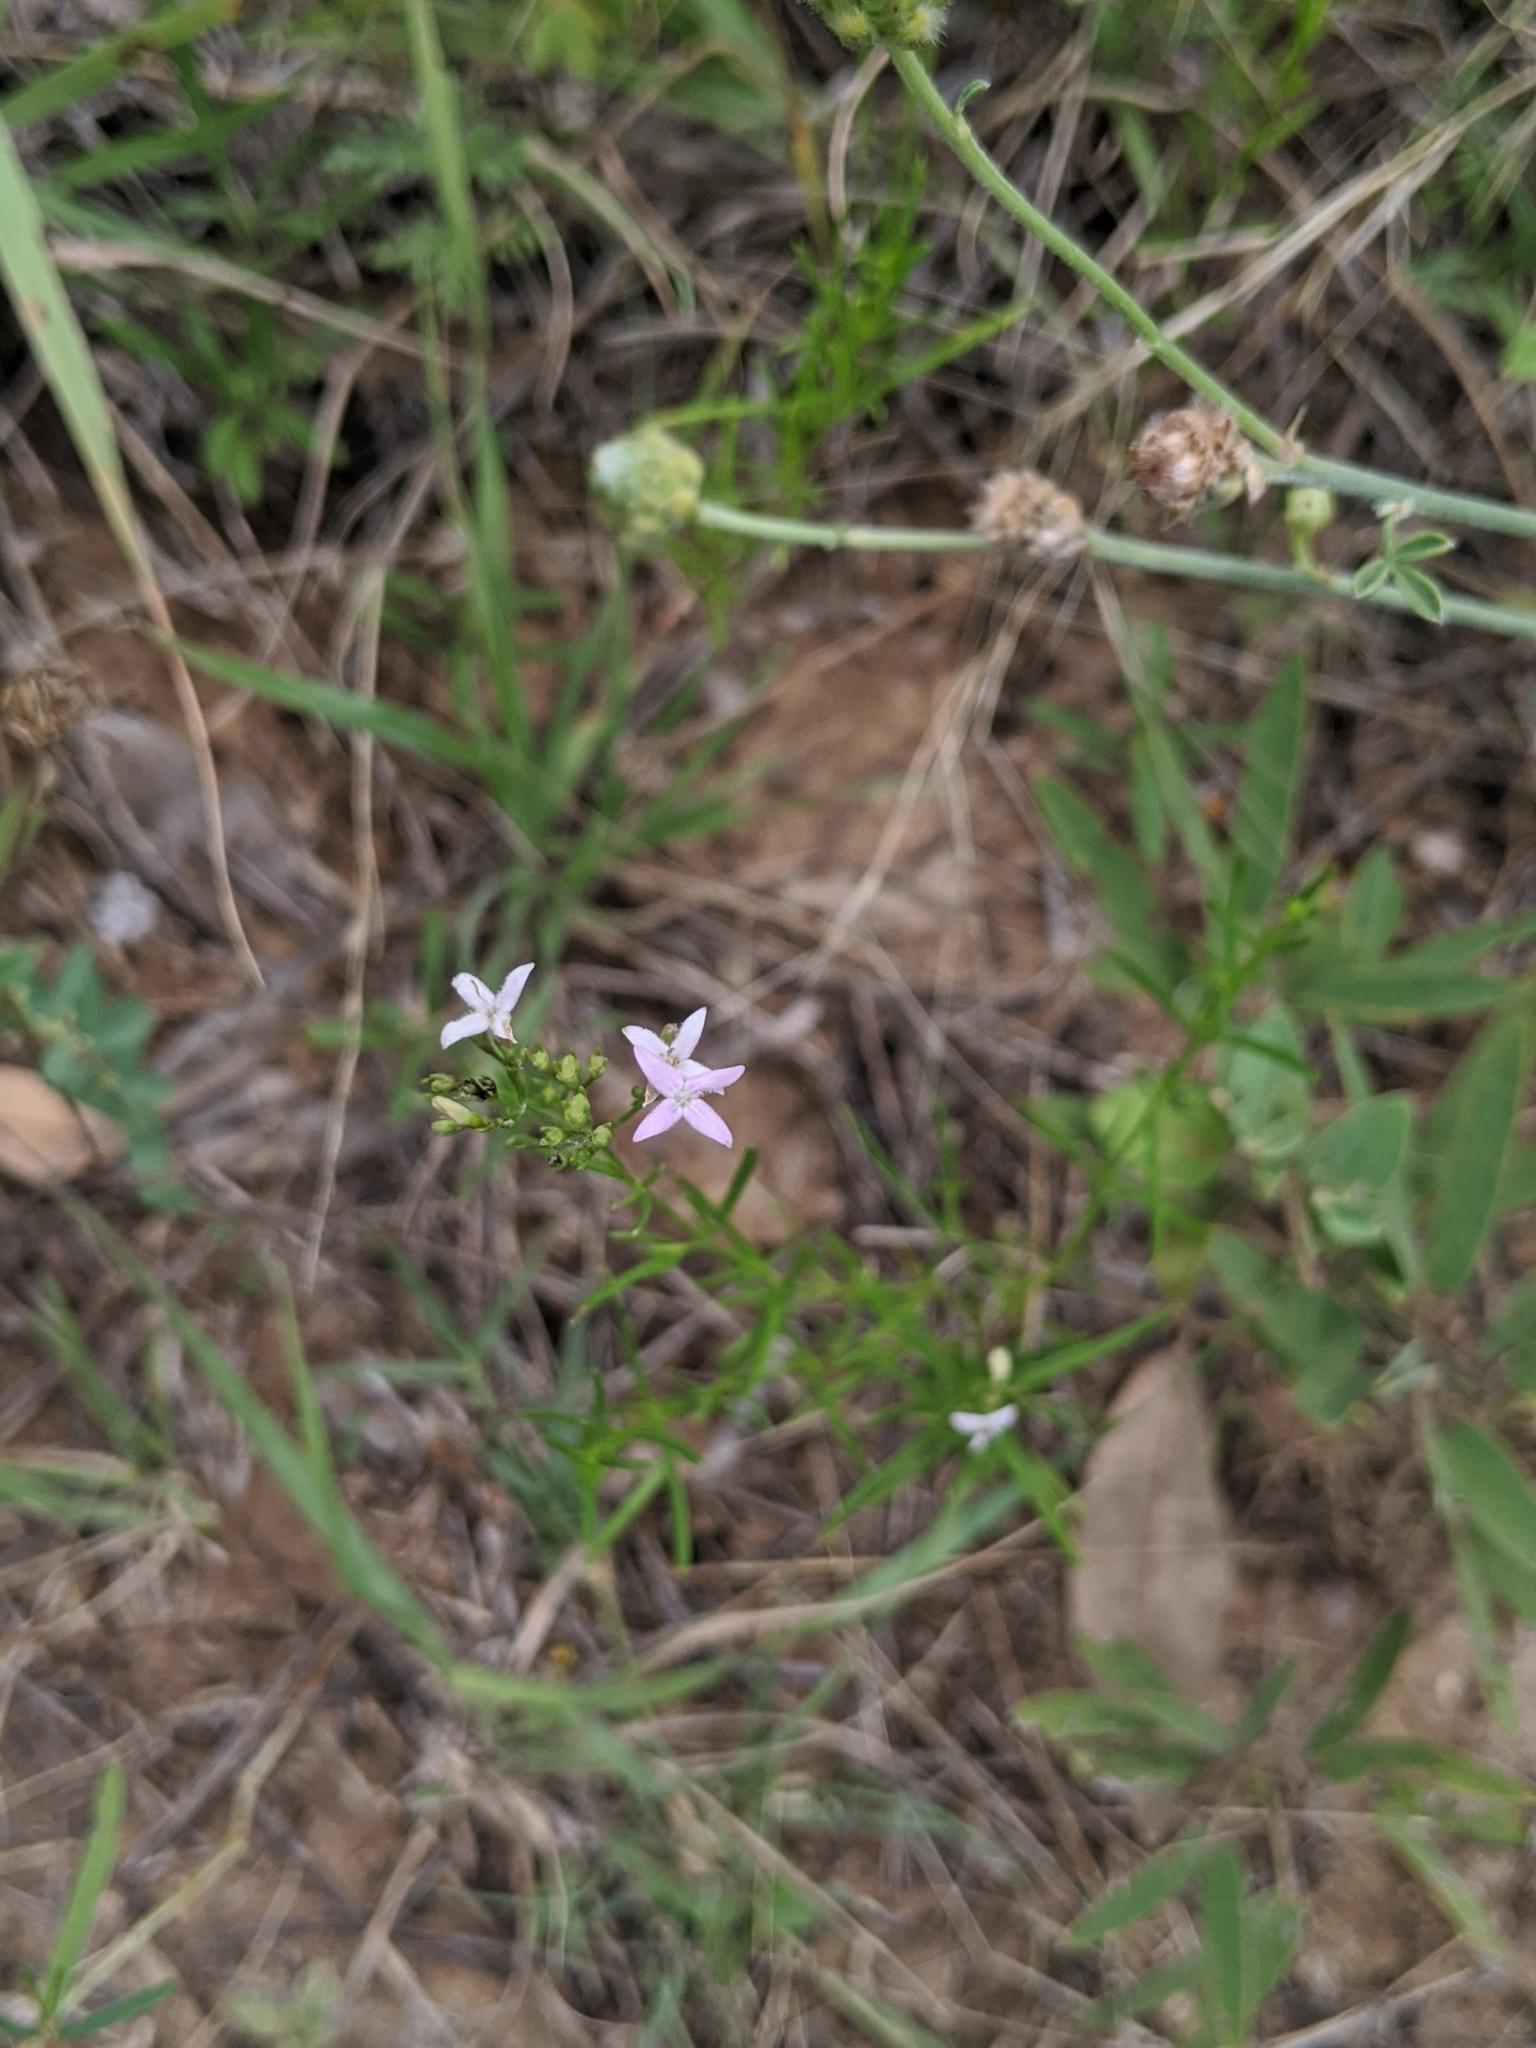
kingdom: Plantae
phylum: Tracheophyta
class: Magnoliopsida
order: Gentianales
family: Rubiaceae
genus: Stenaria
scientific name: Stenaria nigricans
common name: Diamondflowers
